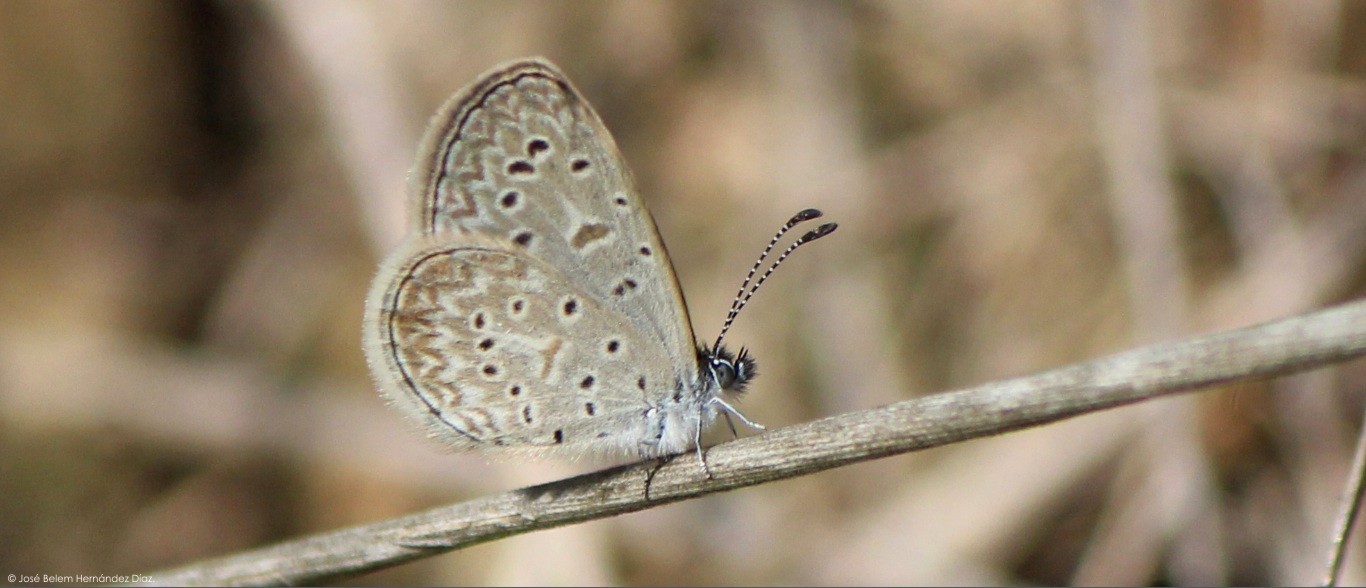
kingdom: Animalia
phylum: Arthropoda
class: Insecta
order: Lepidoptera
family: Lycaenidae
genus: Lycaena
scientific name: Lycaena cyna
